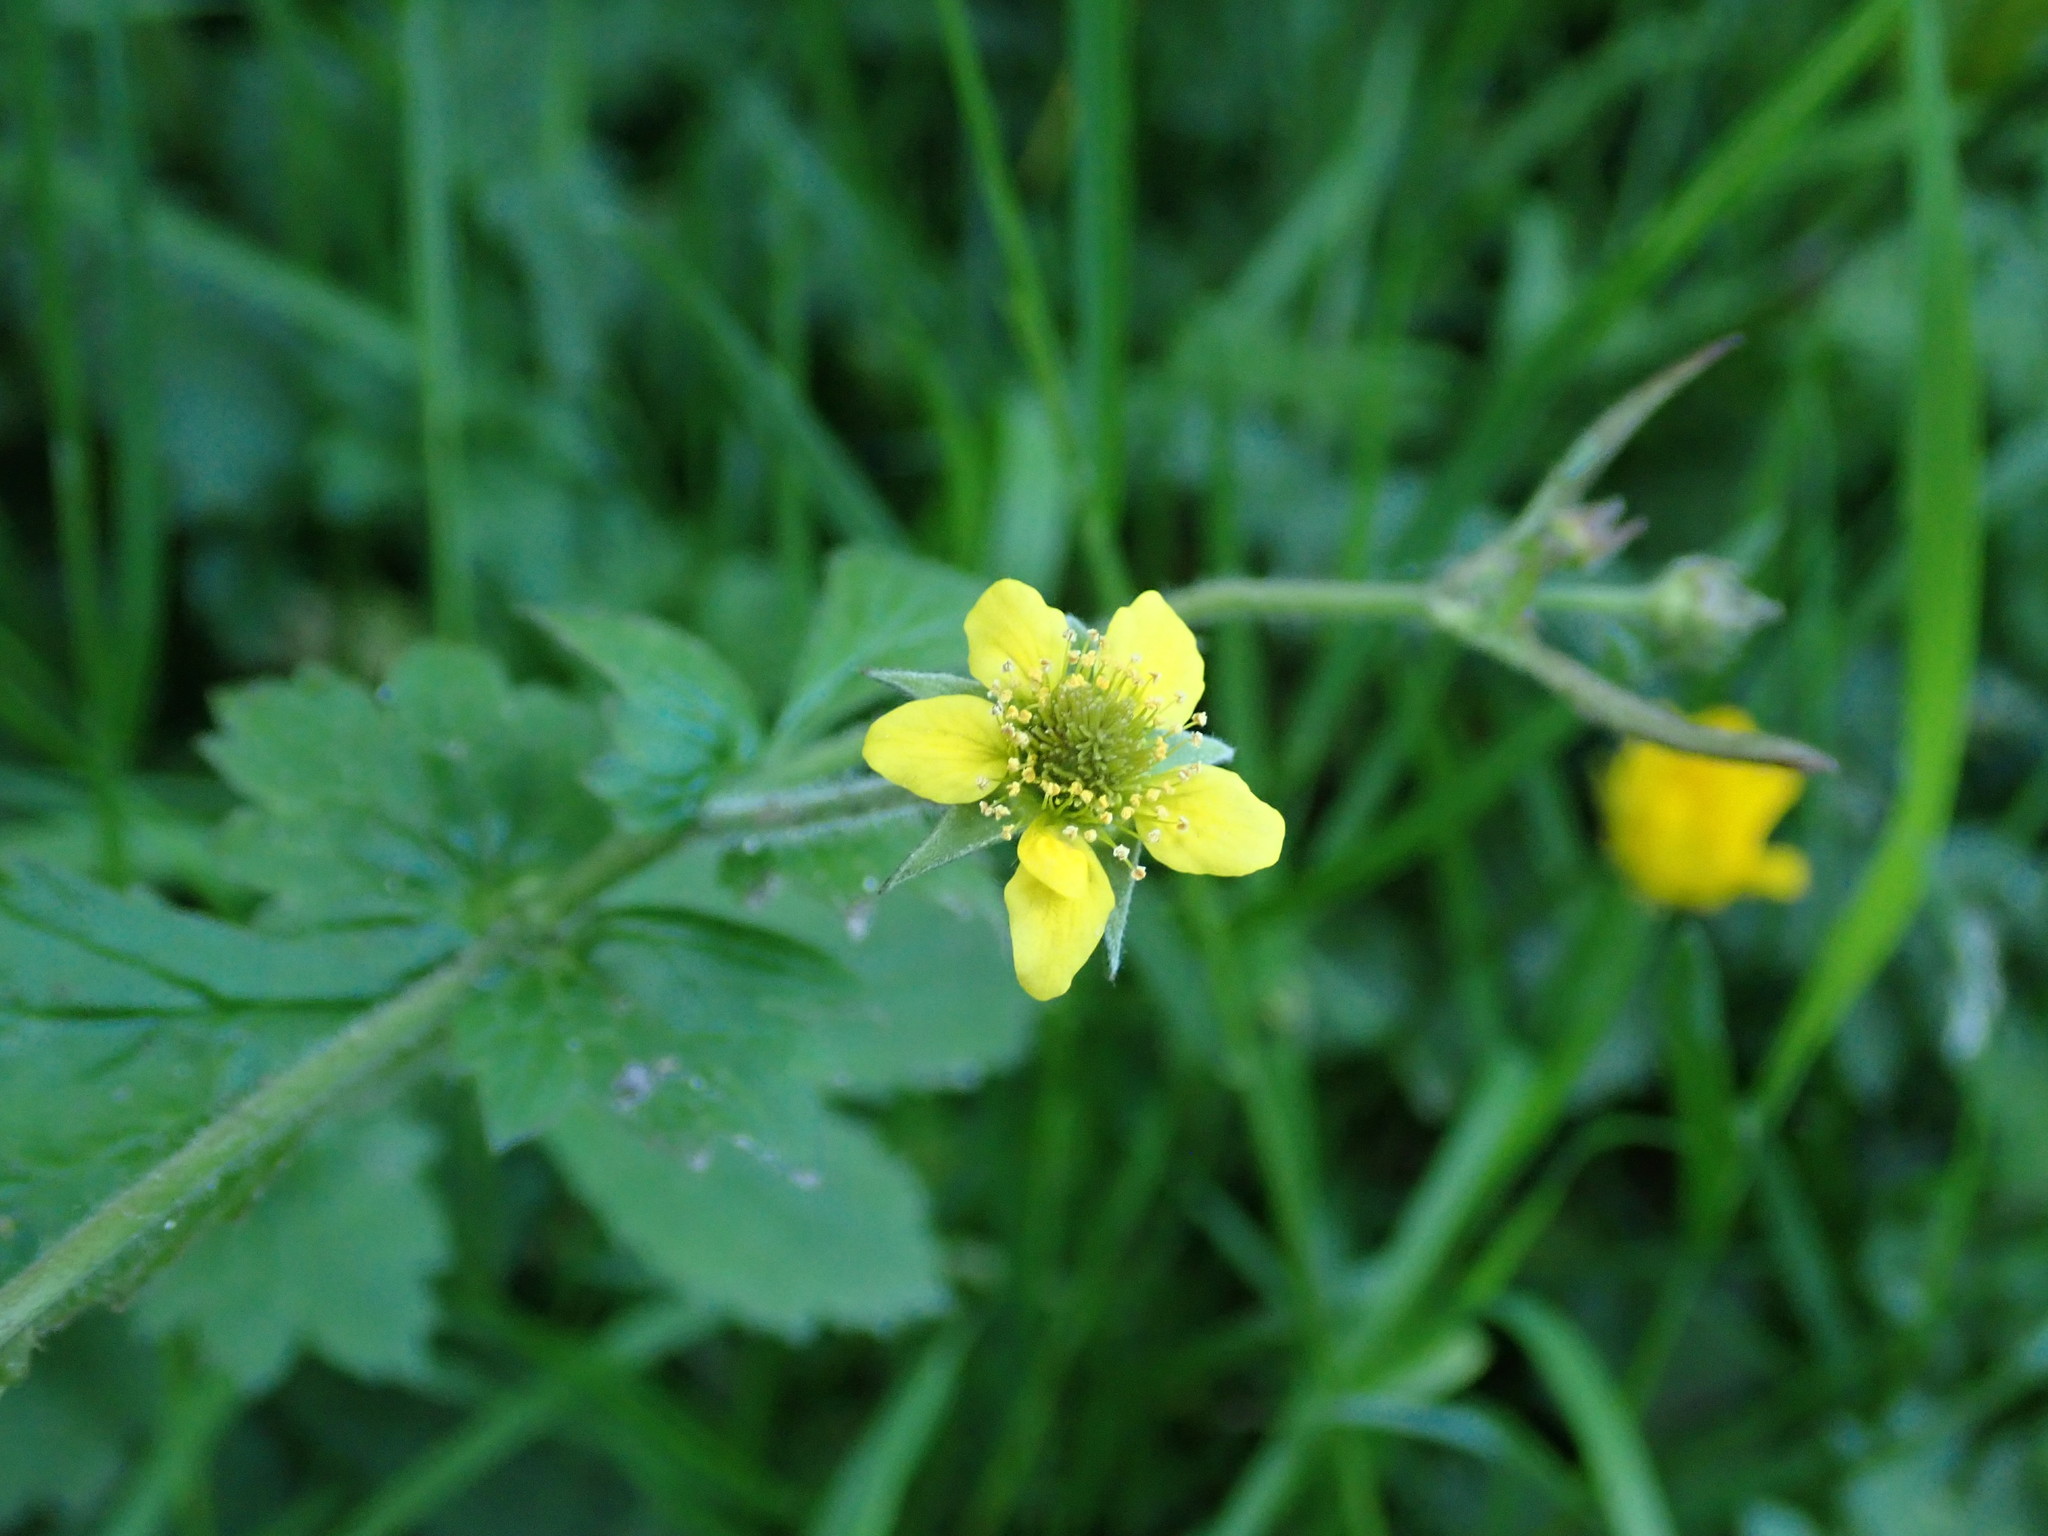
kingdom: Plantae
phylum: Tracheophyta
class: Magnoliopsida
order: Rosales
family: Rosaceae
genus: Geum
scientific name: Geum urbanum
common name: Wood avens
